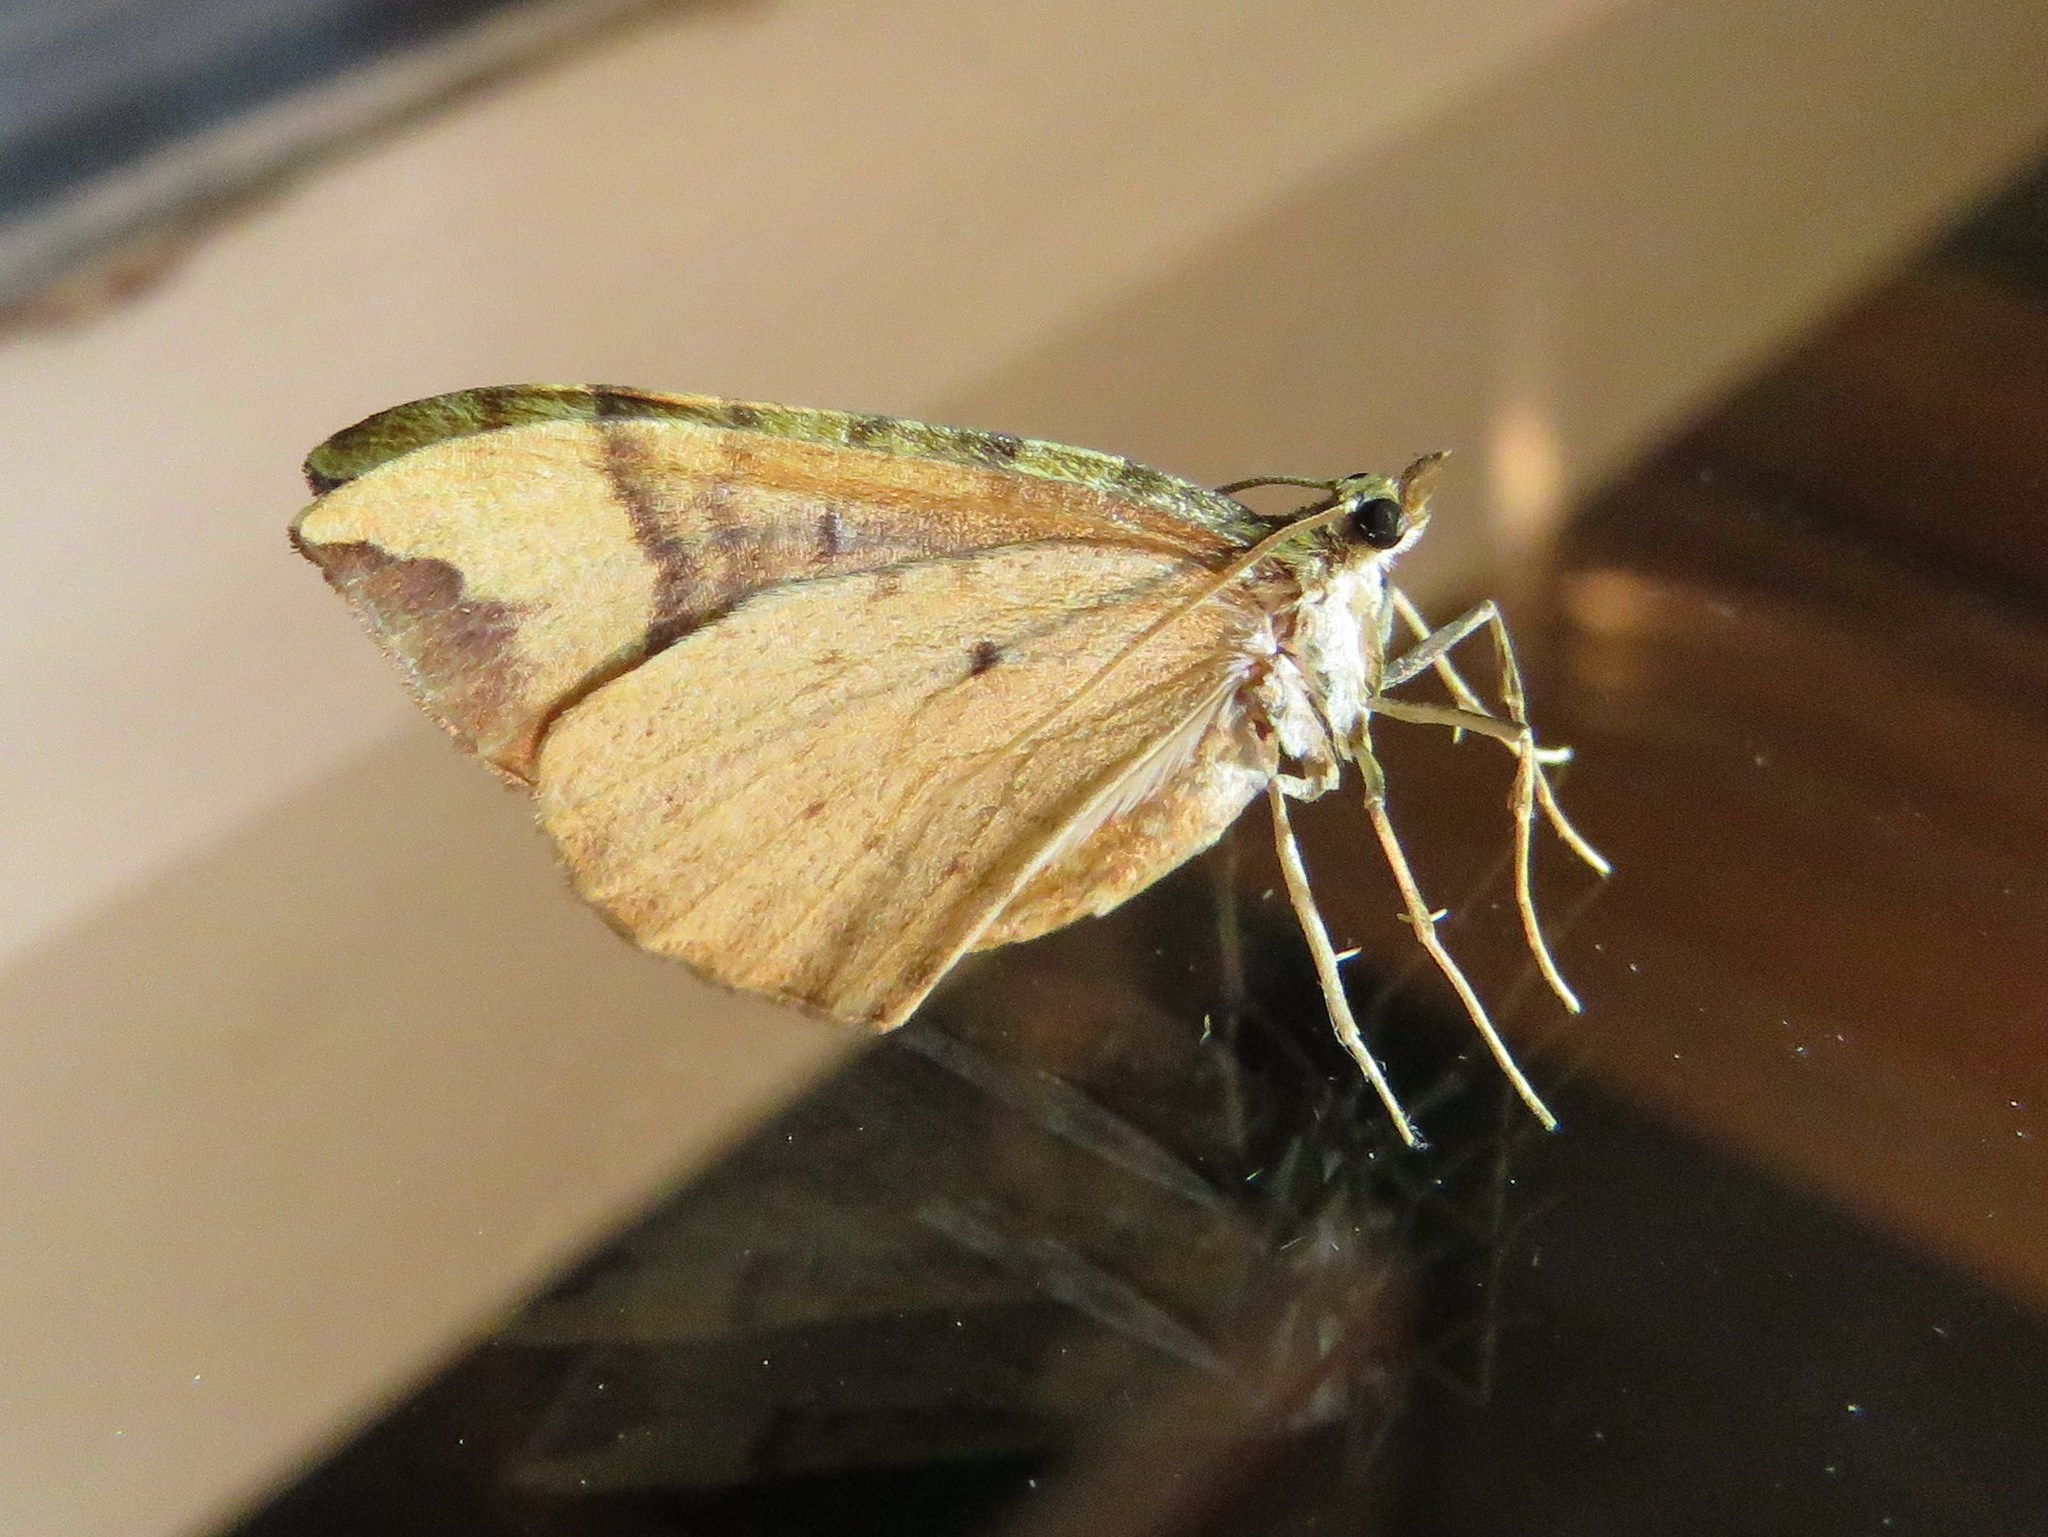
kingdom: Animalia
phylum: Arthropoda
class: Insecta
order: Lepidoptera
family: Geometridae
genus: Eulithis
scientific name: Eulithis populata
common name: Northern spinach
